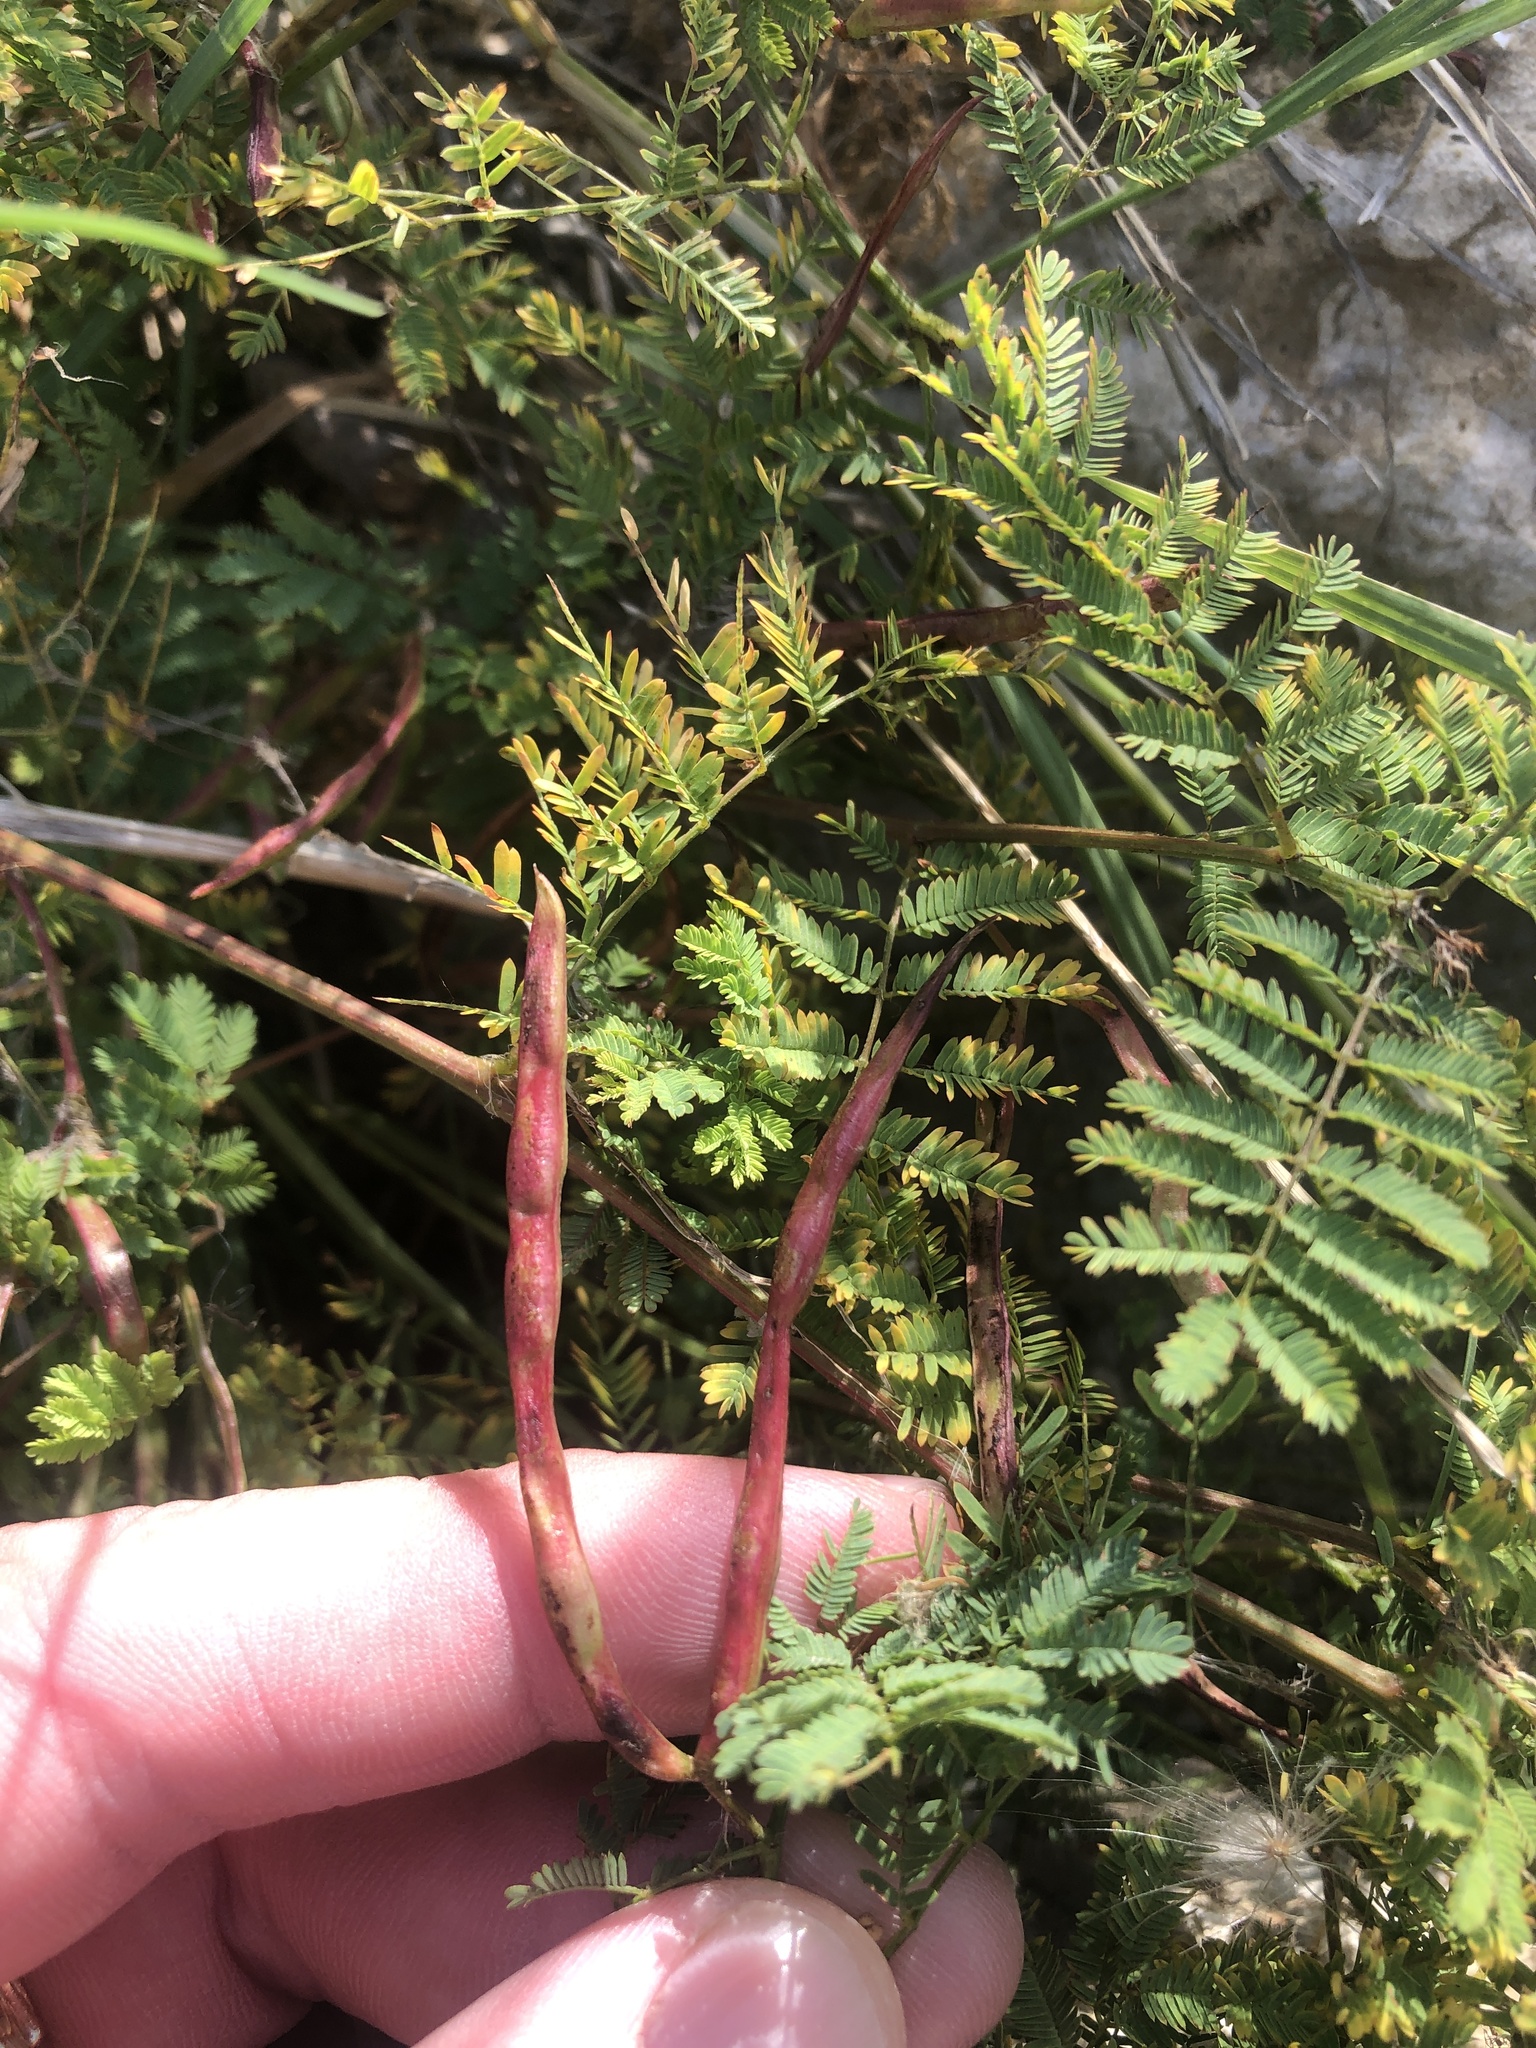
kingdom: Plantae
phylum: Tracheophyta
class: Magnoliopsida
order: Fabales
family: Fabaceae
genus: Desmanthus
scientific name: Desmanthus leptolobus
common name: Prairie-mimosa
